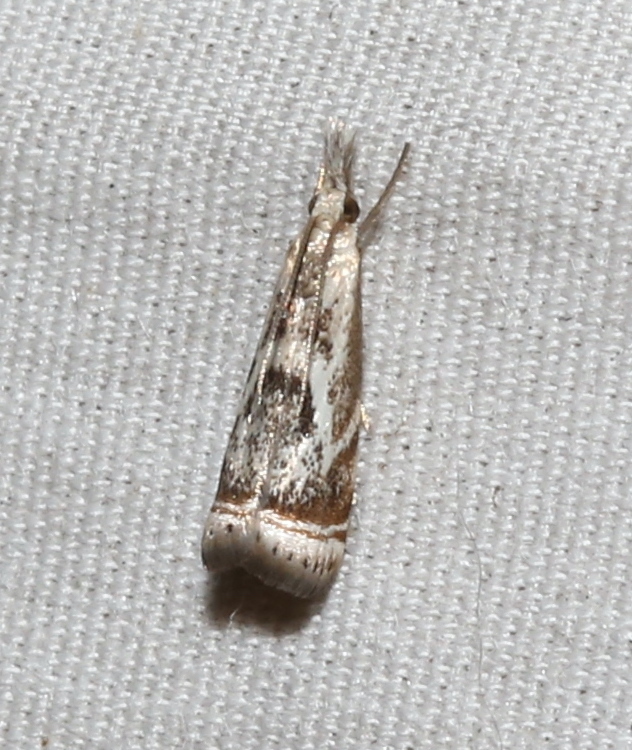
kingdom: Animalia
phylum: Arthropoda
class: Insecta
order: Lepidoptera
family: Crambidae
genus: Microcrambus
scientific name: Microcrambus elegans
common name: Elegant grass-veneer
